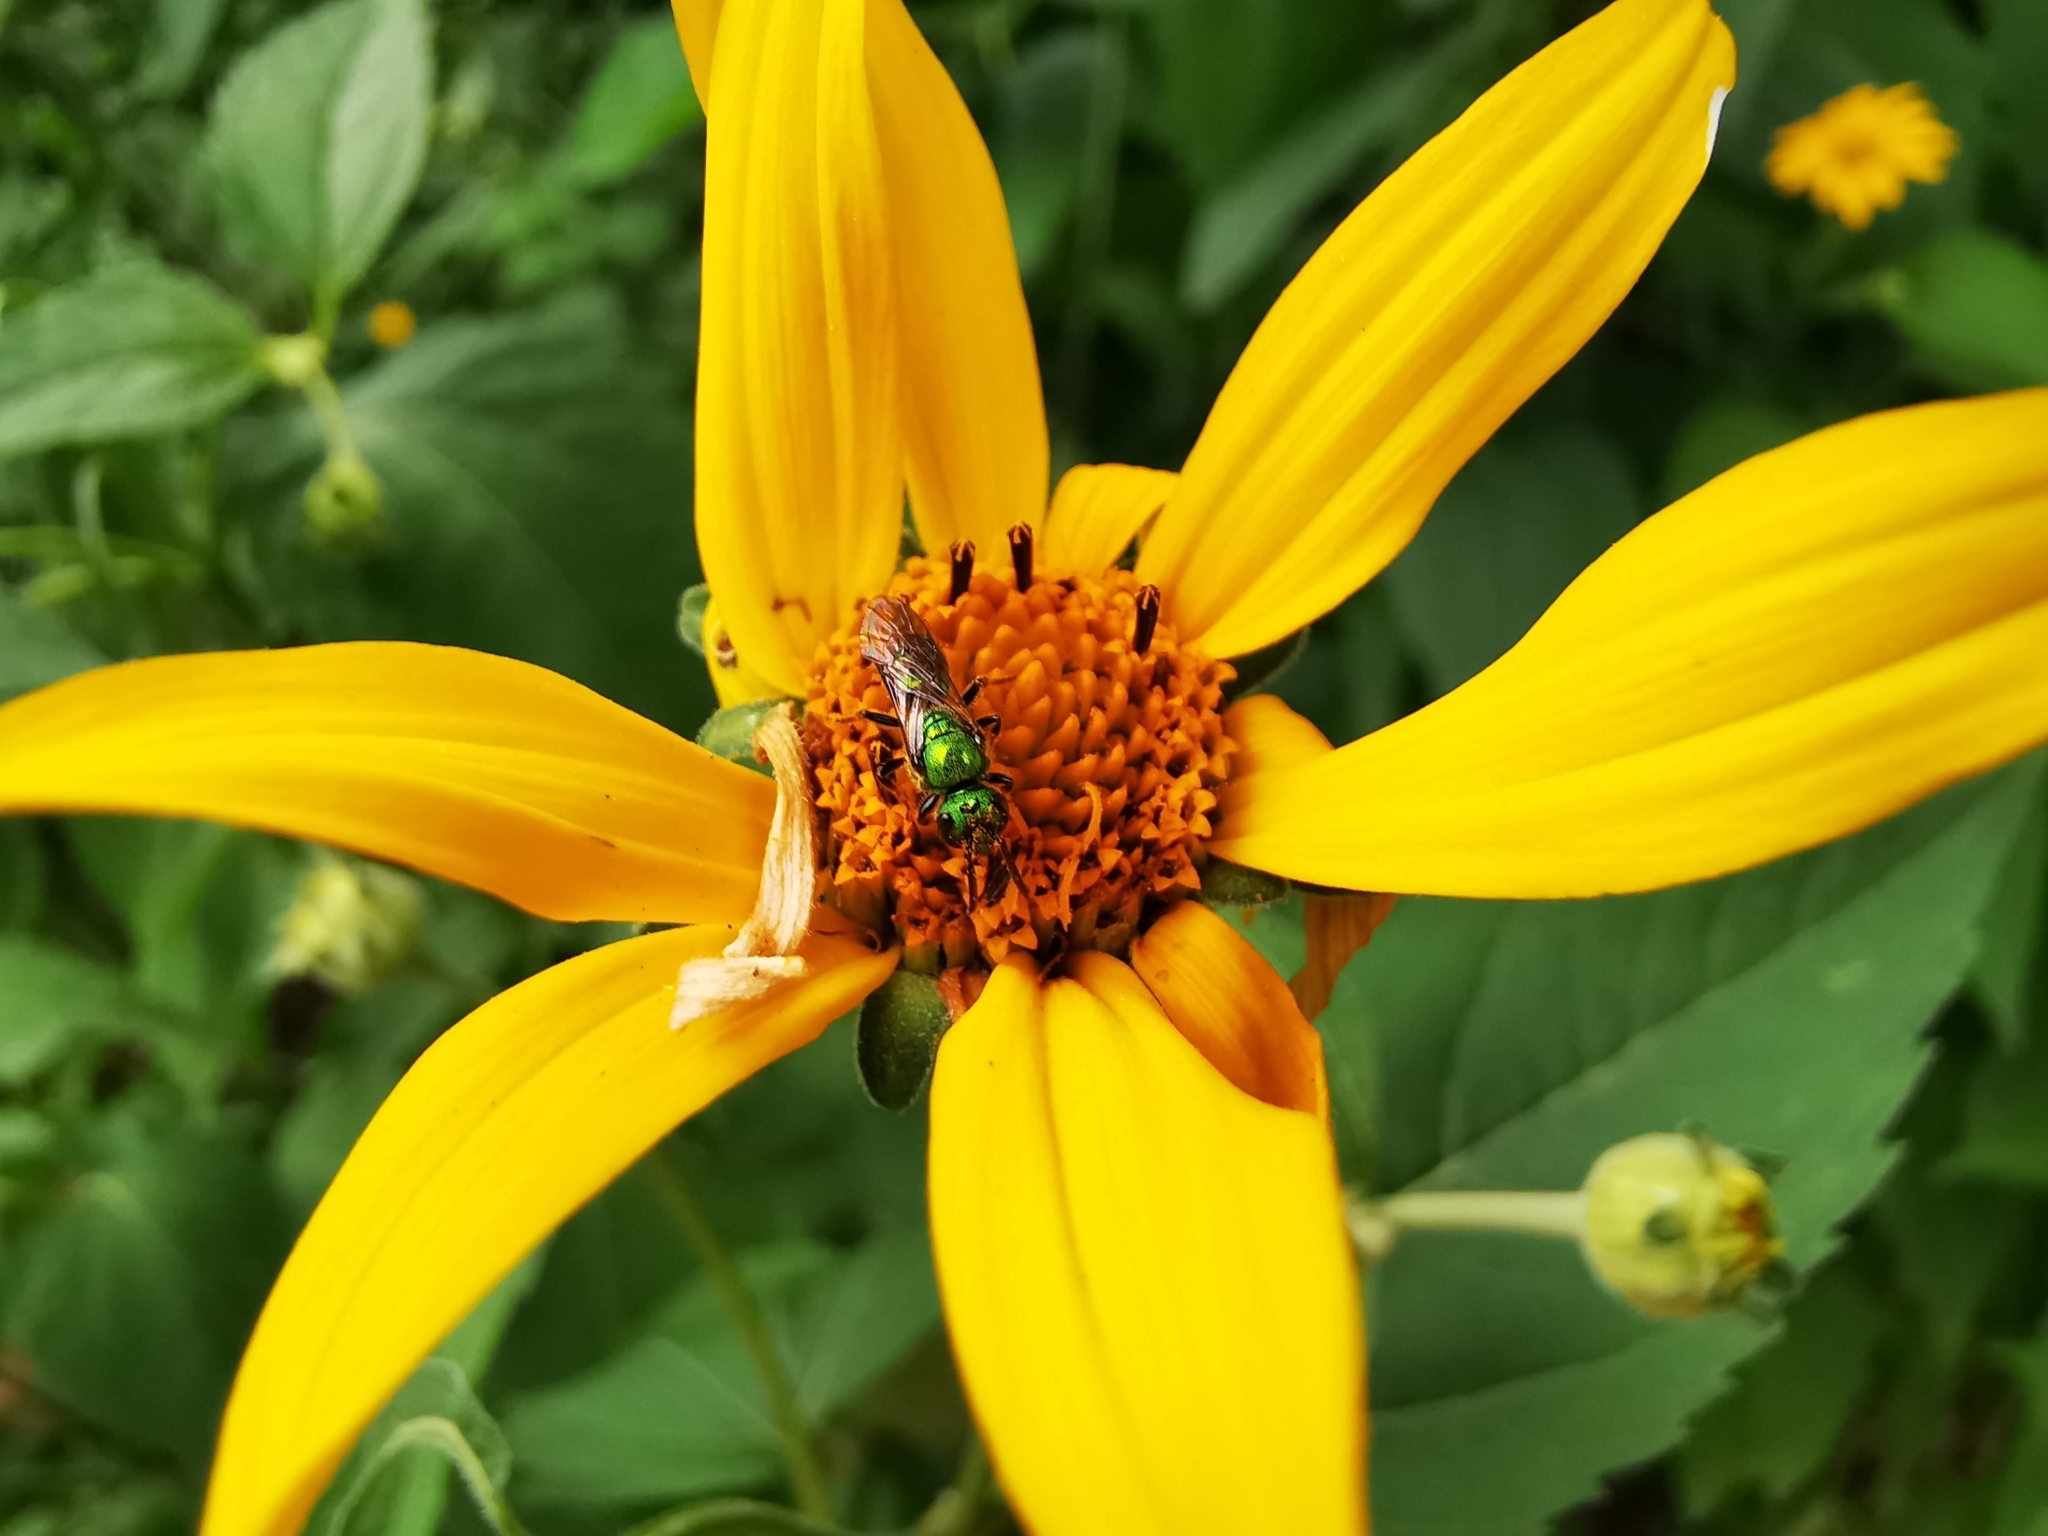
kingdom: Animalia
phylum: Arthropoda
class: Insecta
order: Hymenoptera
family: Halictidae
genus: Augochlora
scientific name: Augochlora pura
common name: Pure green sweat bee
